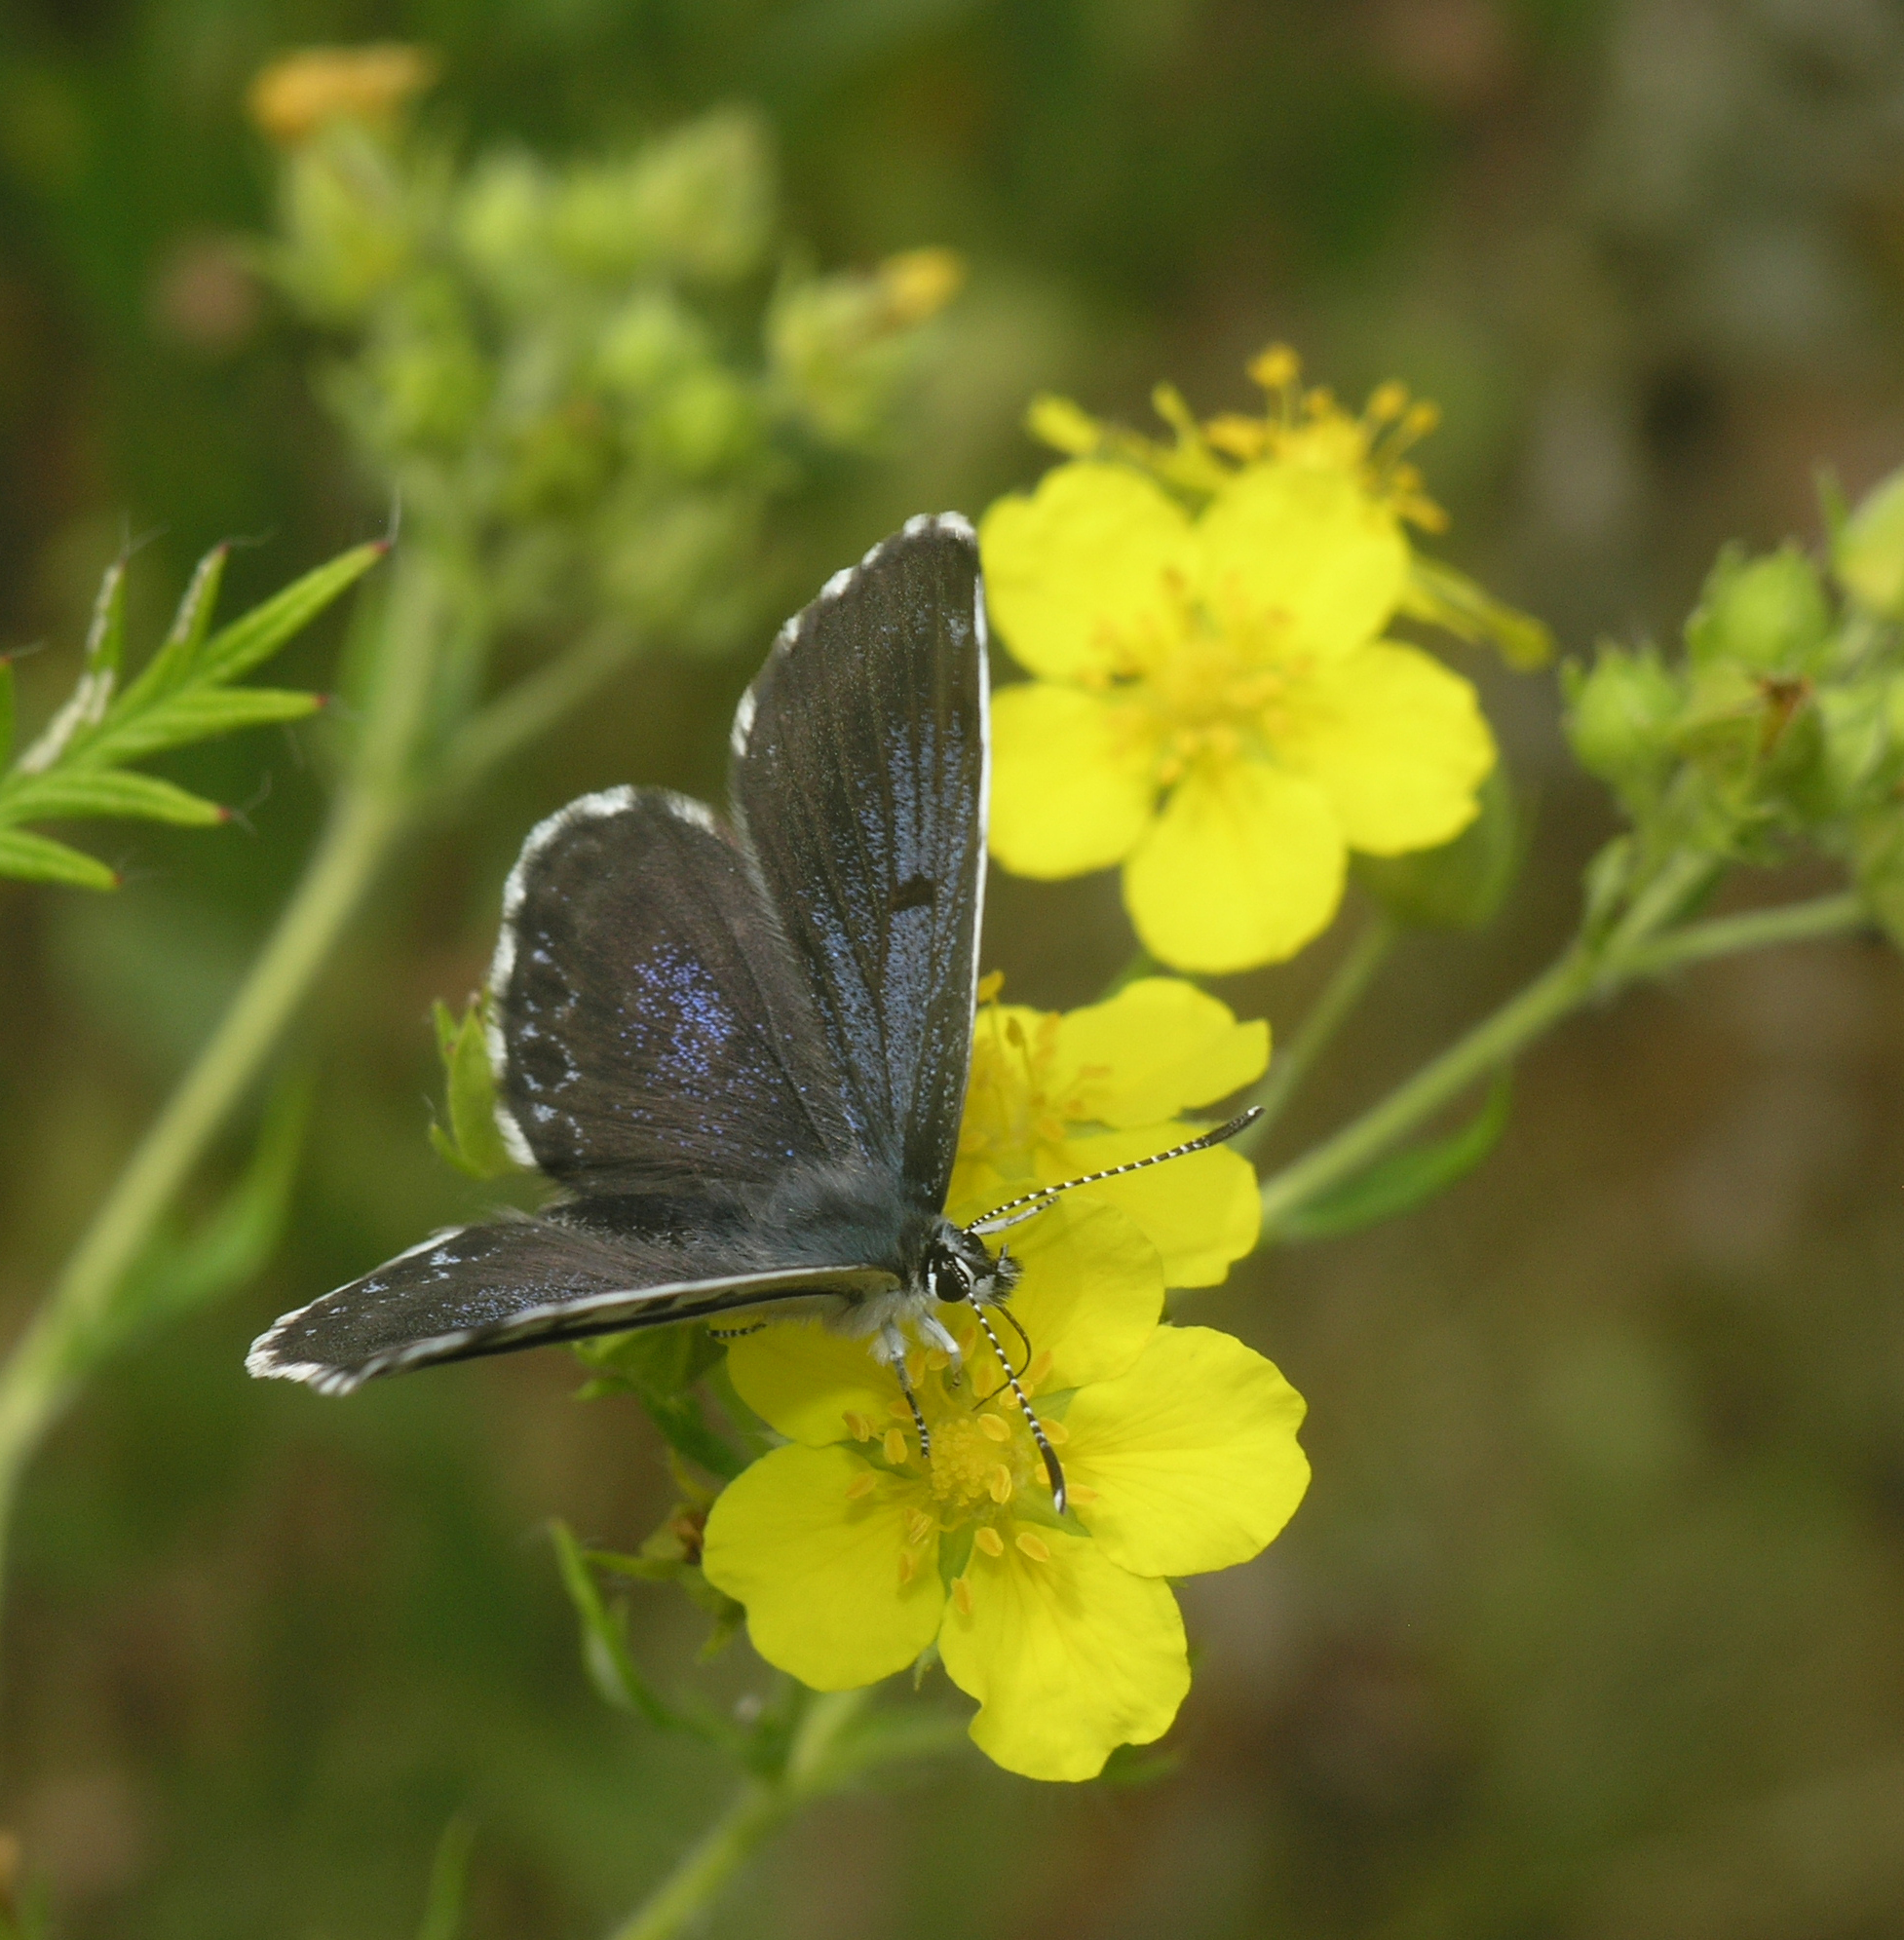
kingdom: Animalia
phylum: Arthropoda
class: Insecta
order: Lepidoptera
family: Lycaenidae
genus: Scolitantides
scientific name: Scolitantides orion
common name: Chequered blue
